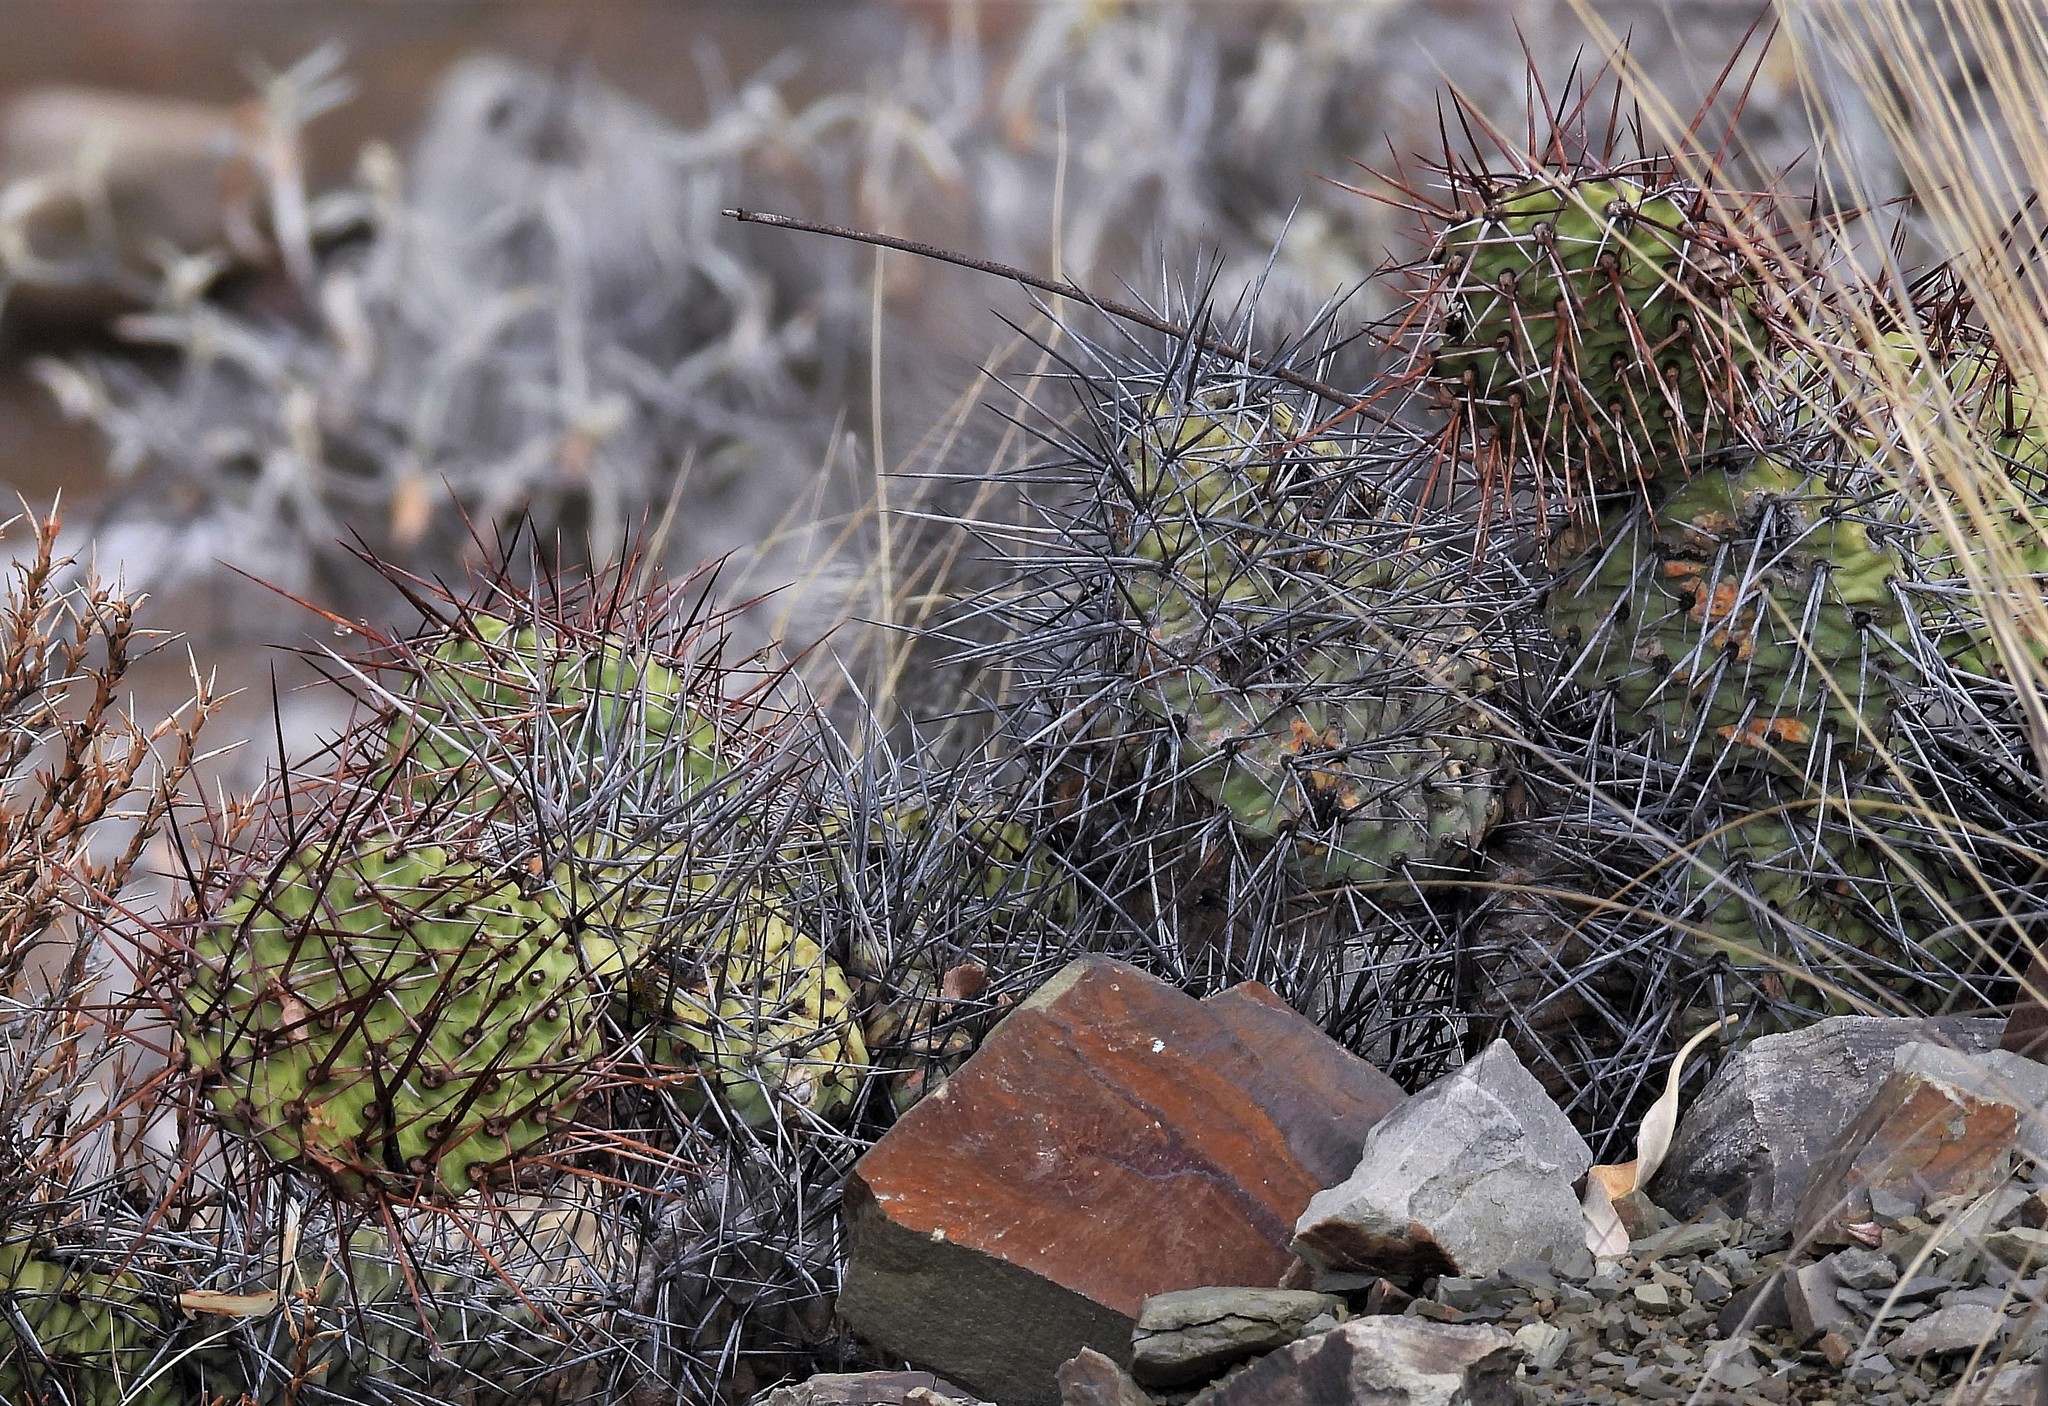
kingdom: Plantae
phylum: Tracheophyta
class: Magnoliopsida
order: Caryophyllales
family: Cactaceae
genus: Opuntia
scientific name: Opuntia sulphurea
